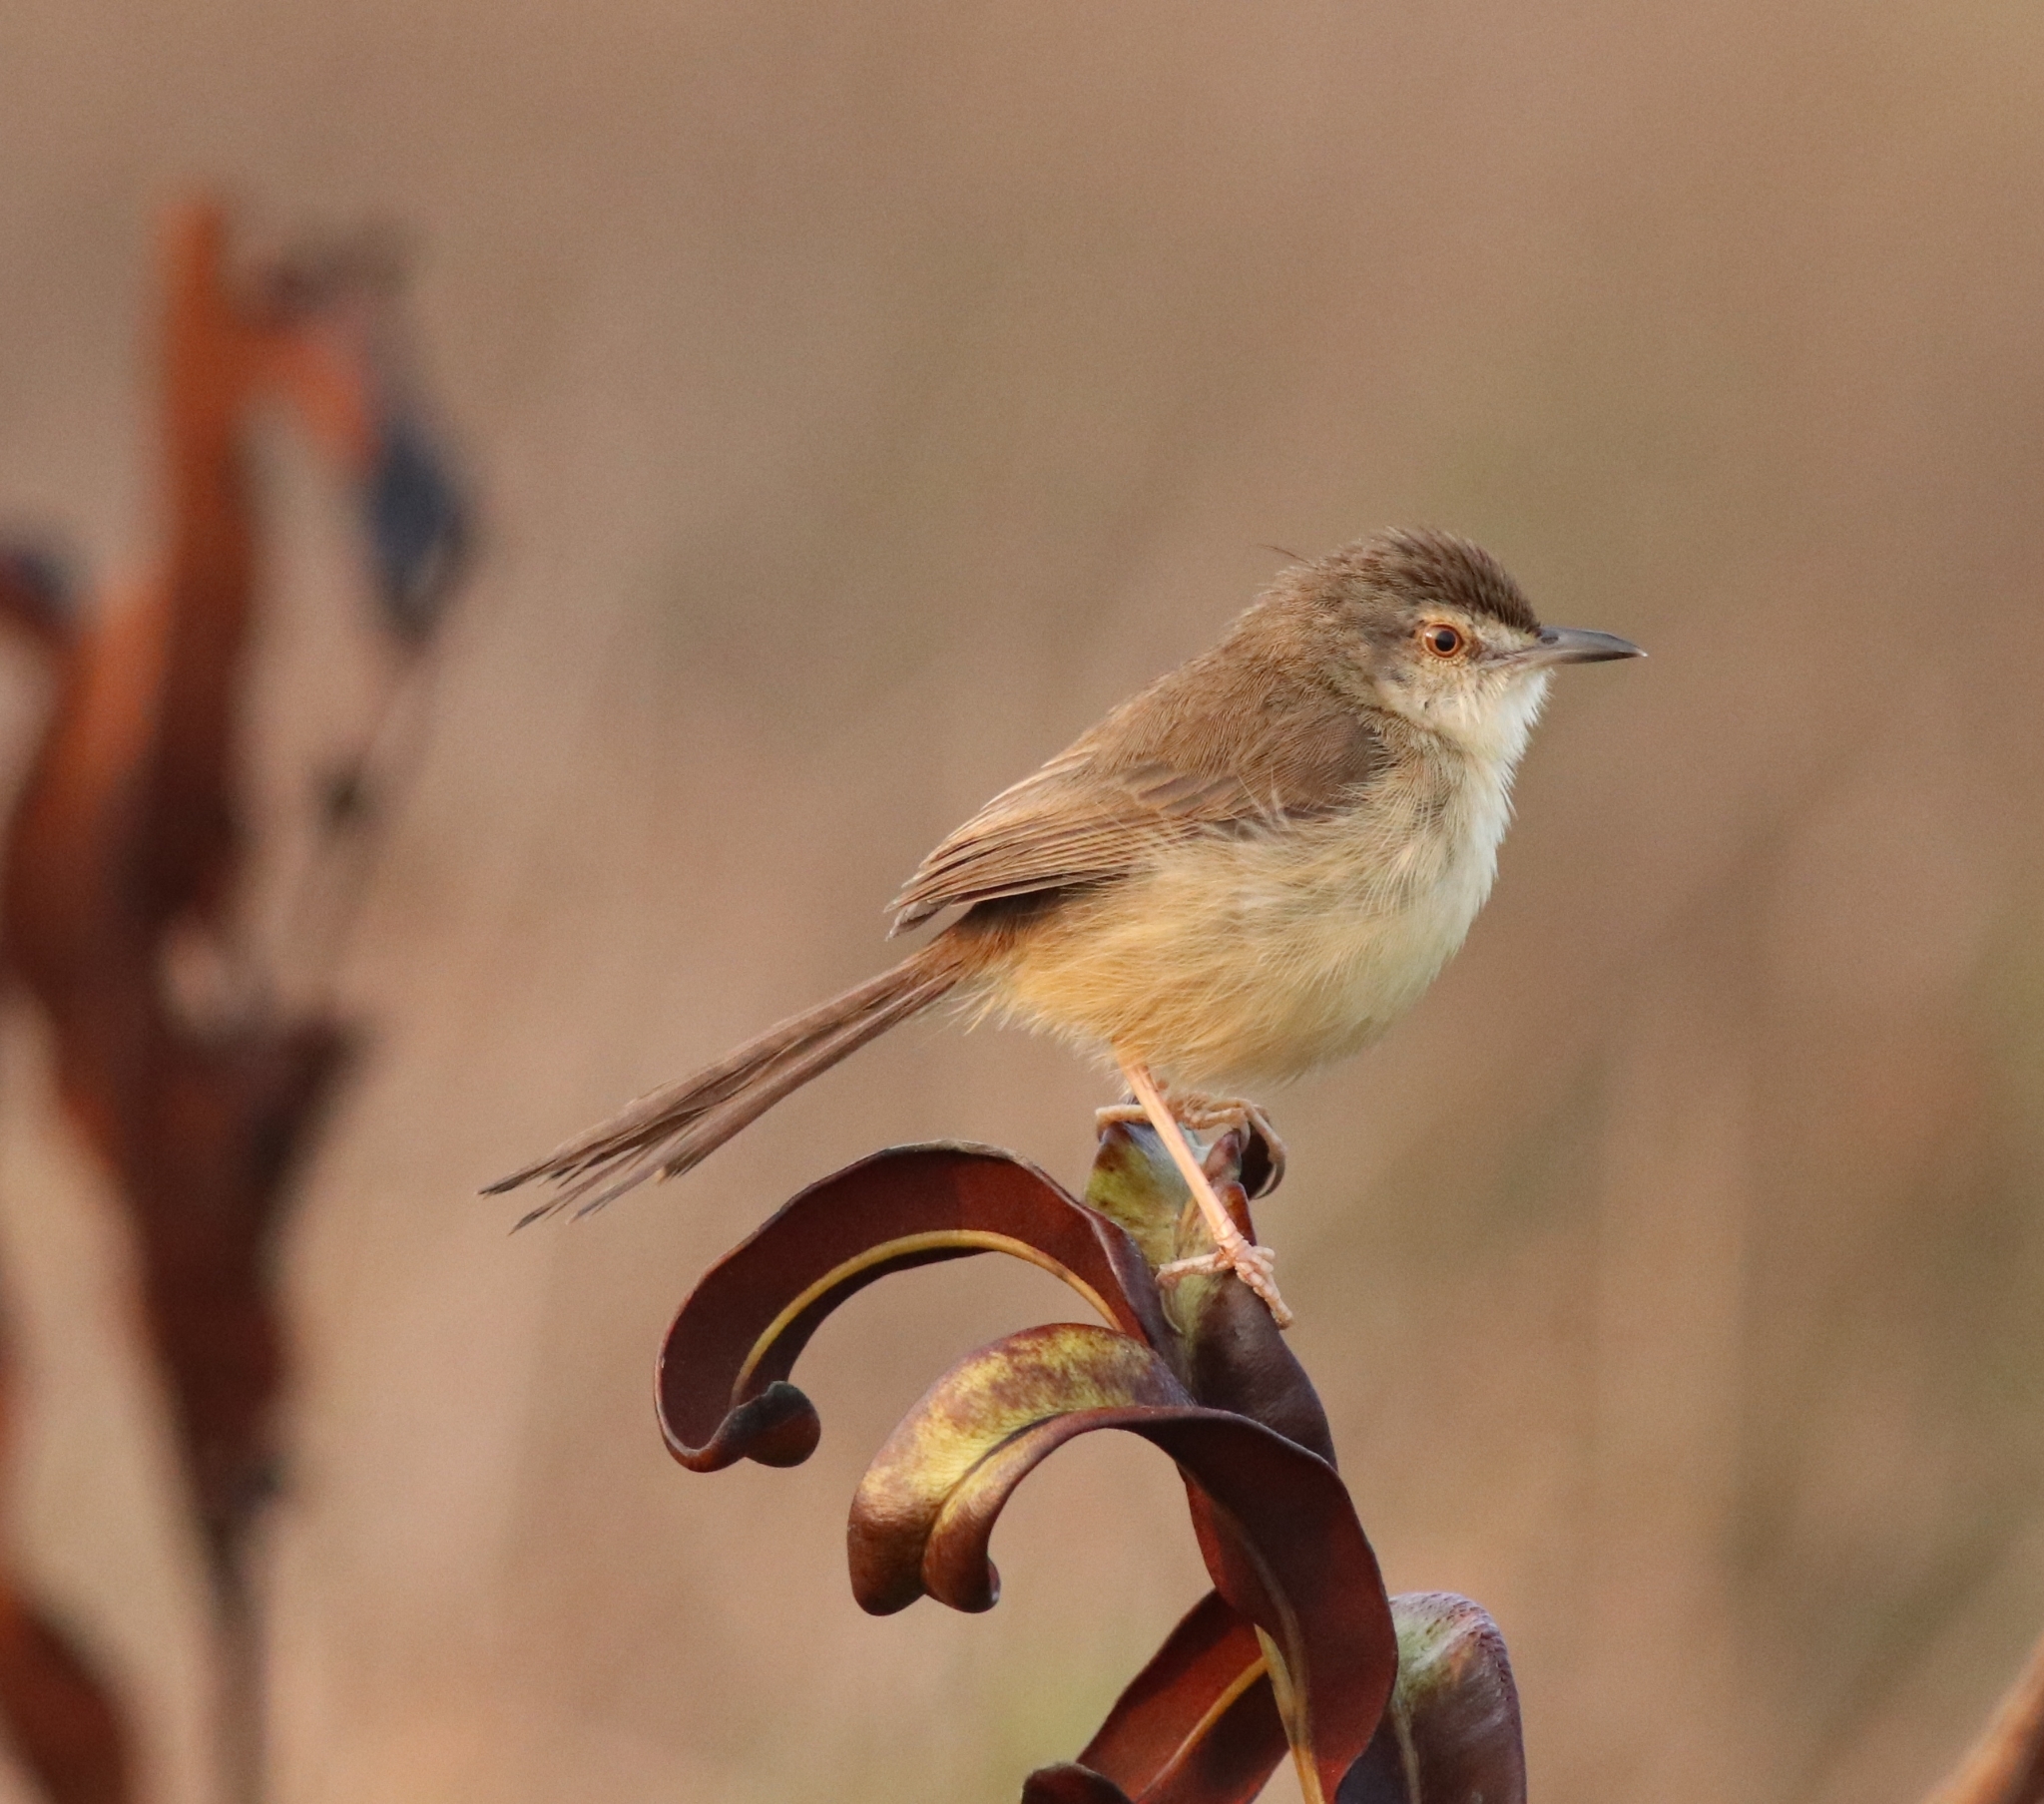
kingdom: Animalia
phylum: Chordata
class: Aves
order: Passeriformes
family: Cisticolidae
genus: Prinia
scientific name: Prinia inornata
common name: Plain prinia
